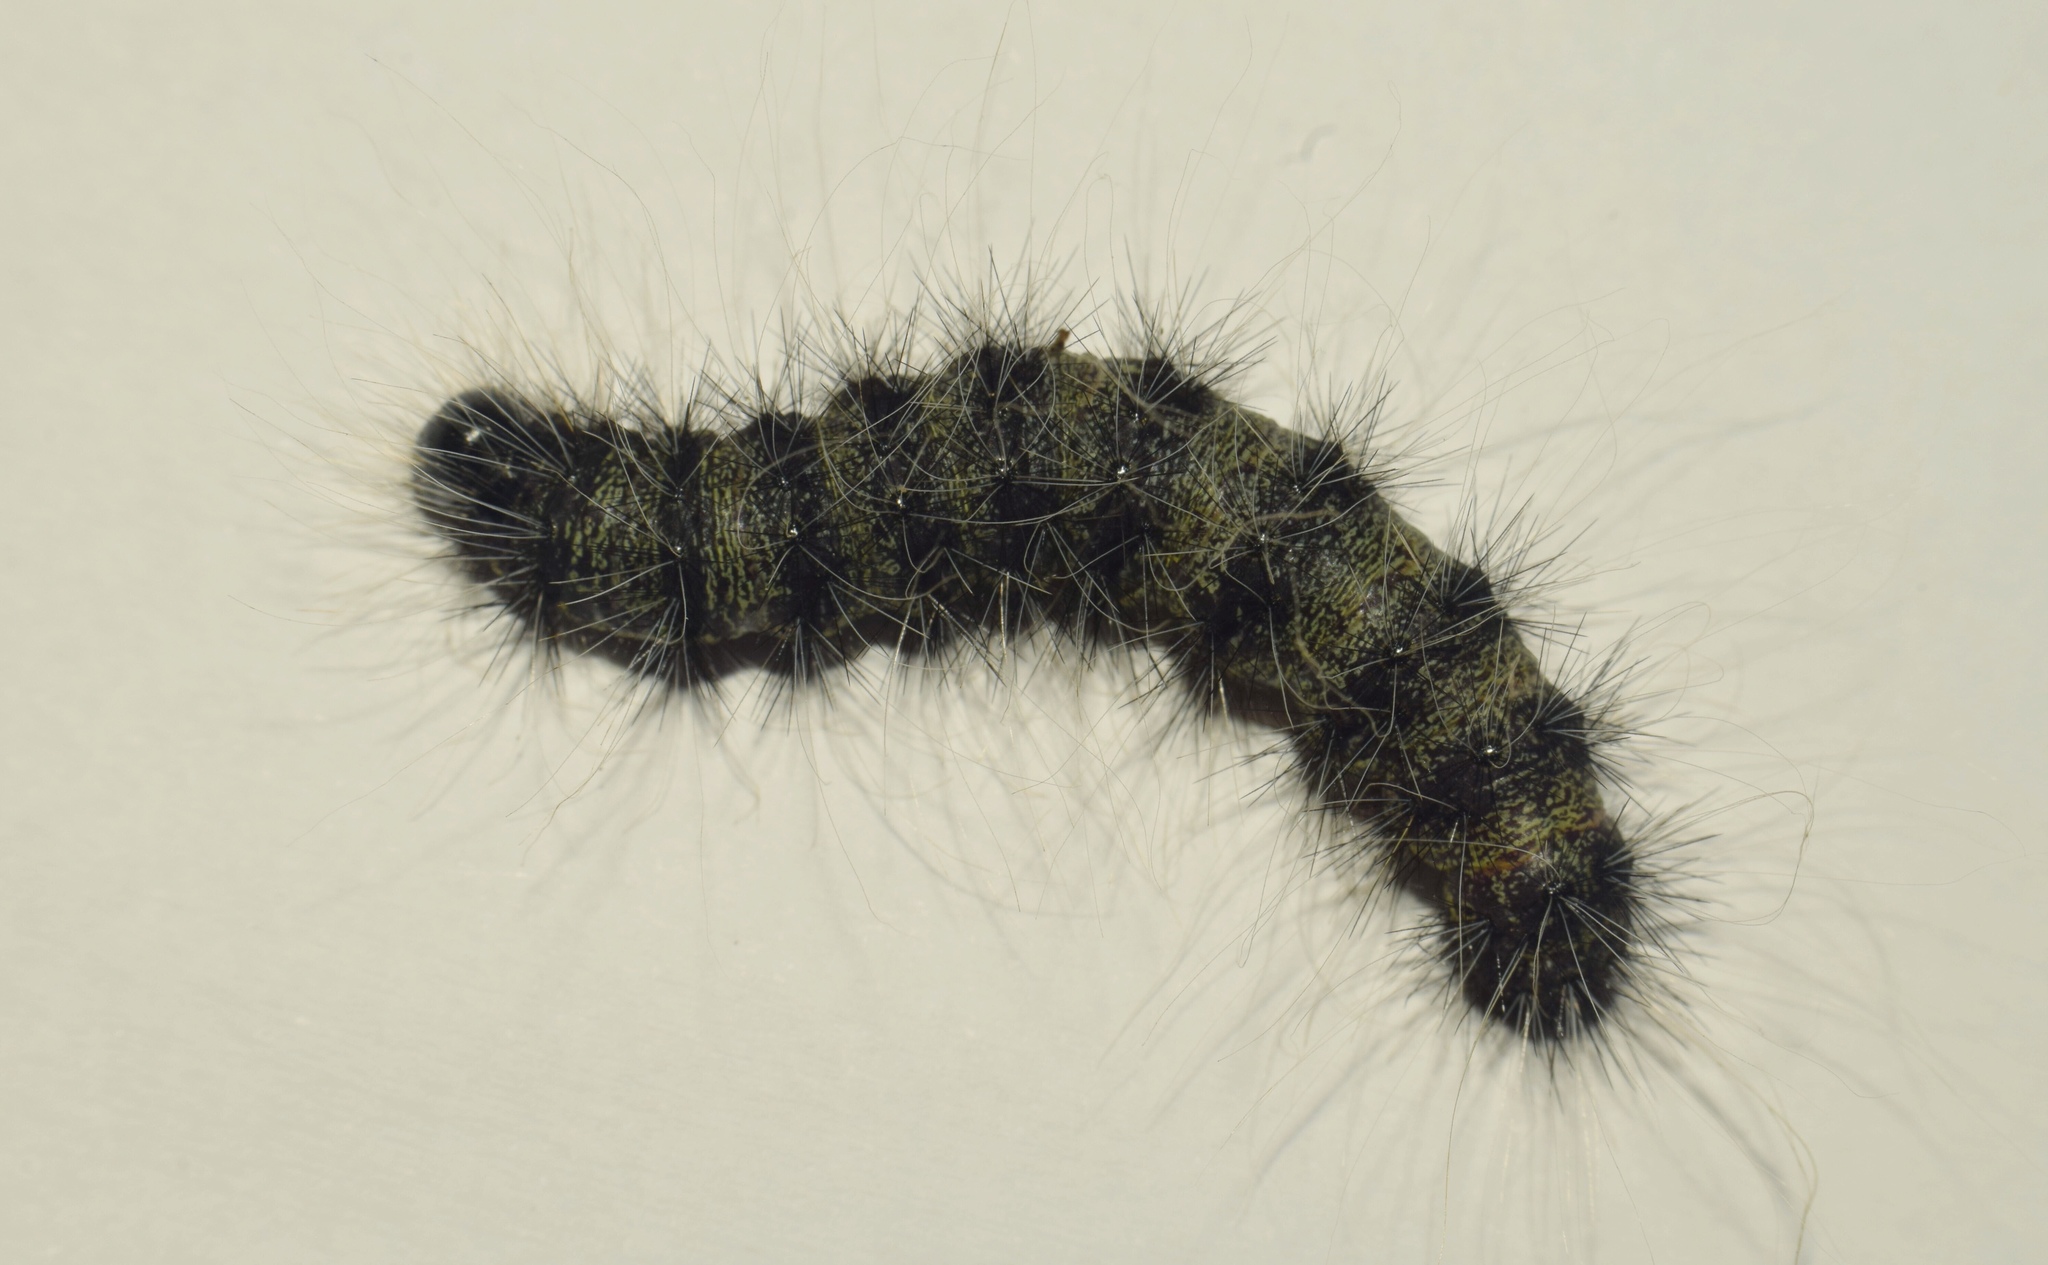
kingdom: Animalia
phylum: Arthropoda
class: Insecta
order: Lepidoptera
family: Notodontidae
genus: Anaphe
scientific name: Anaphe reticulata
